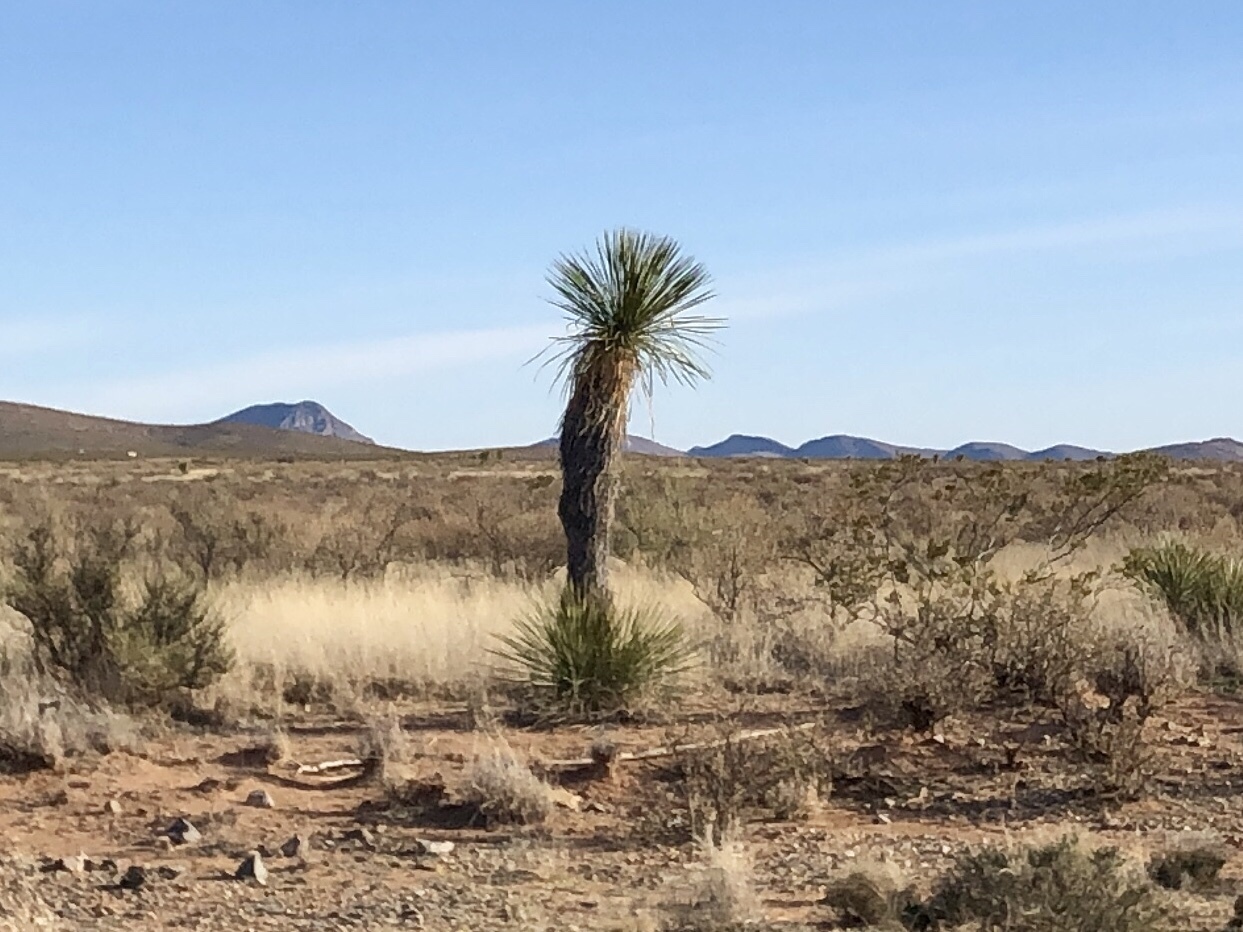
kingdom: Plantae
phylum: Tracheophyta
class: Liliopsida
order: Asparagales
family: Asparagaceae
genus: Yucca
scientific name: Yucca elata
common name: Palmella
